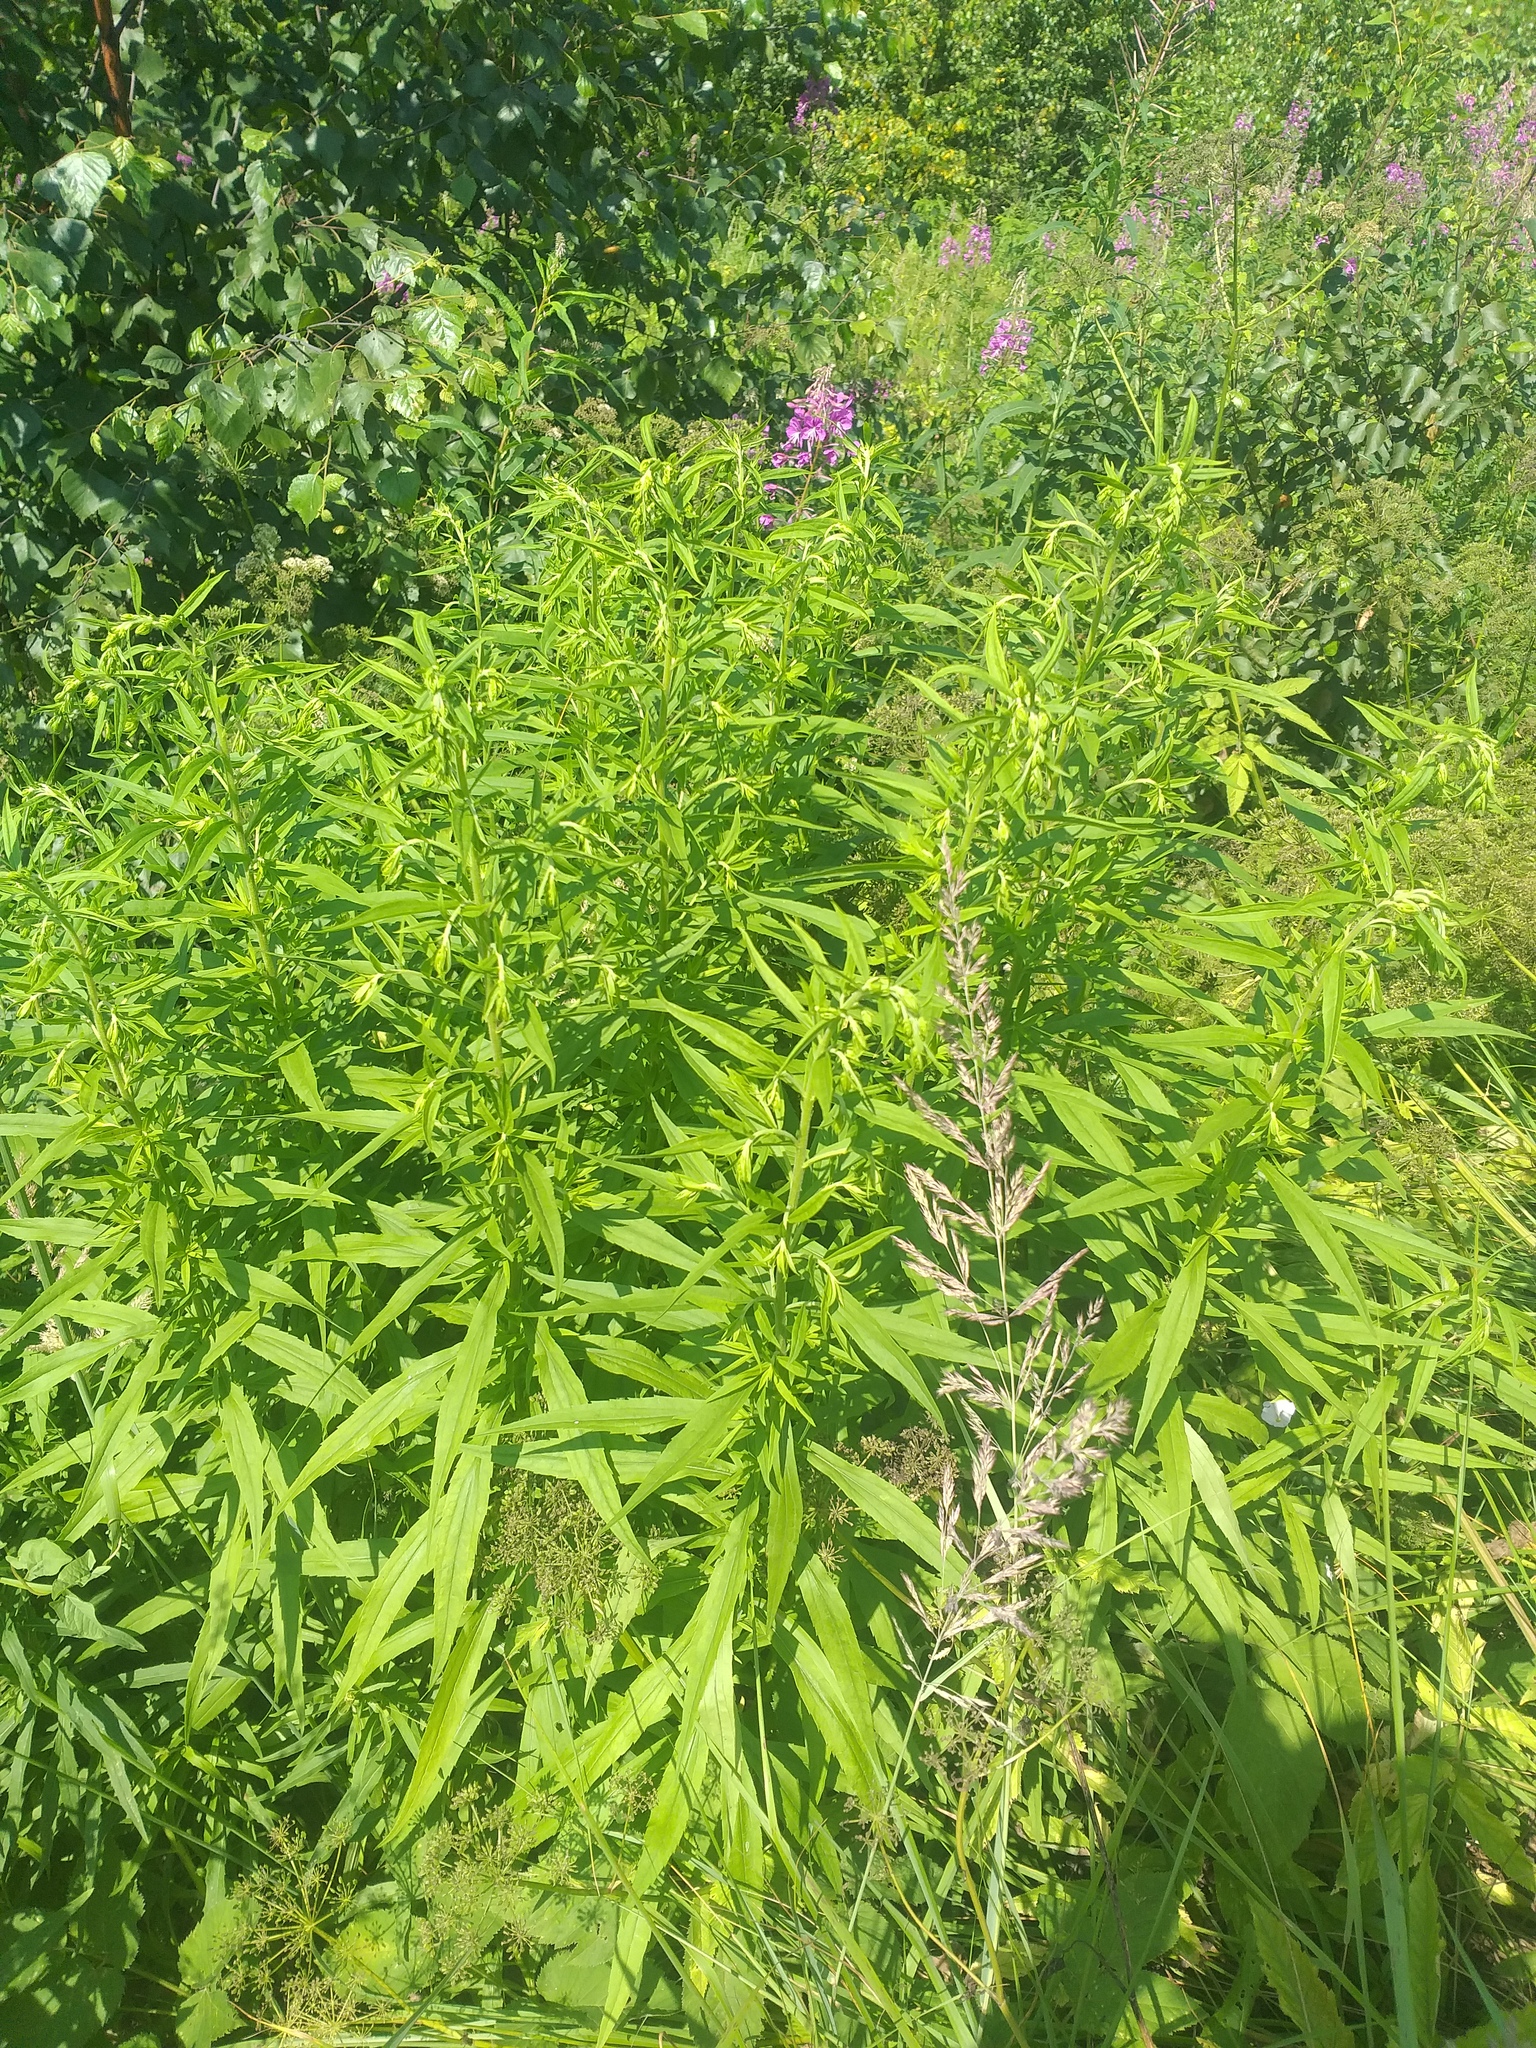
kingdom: Plantae
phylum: Tracheophyta
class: Magnoliopsida
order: Asterales
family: Asteraceae
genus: Solidago
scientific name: Solidago canadensis
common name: Canada goldenrod
